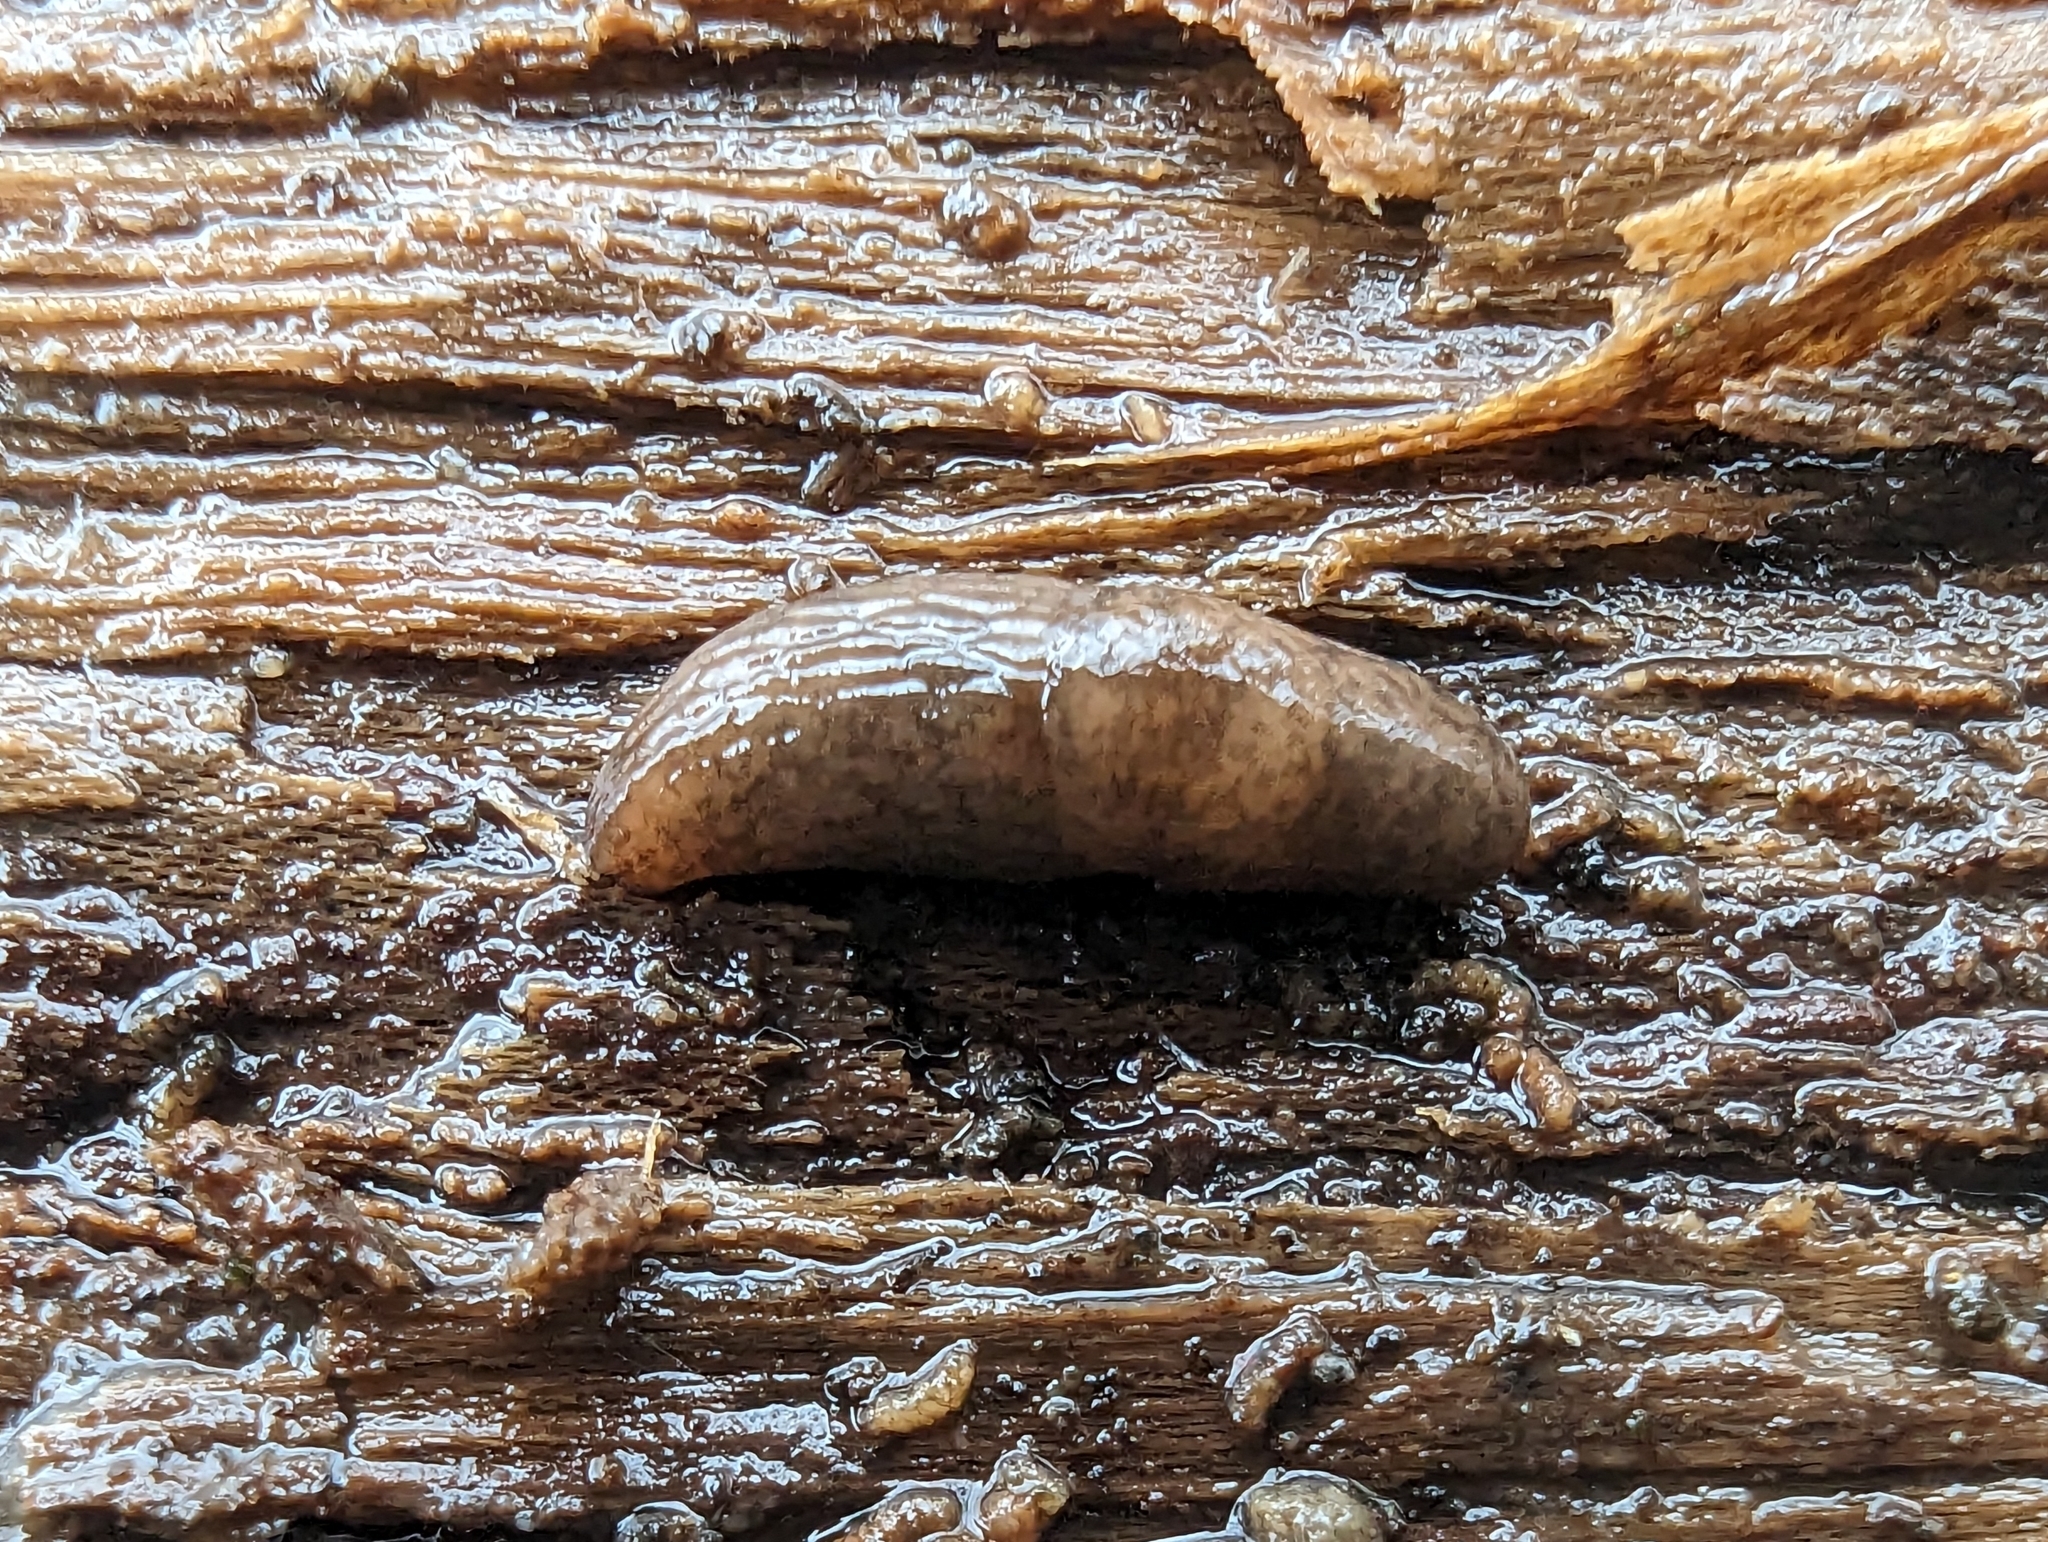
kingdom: Animalia
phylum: Mollusca
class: Gastropoda
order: Stylommatophora
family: Agriolimacidae
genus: Deroceras
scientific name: Deroceras reticulatum
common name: Gray field slug
